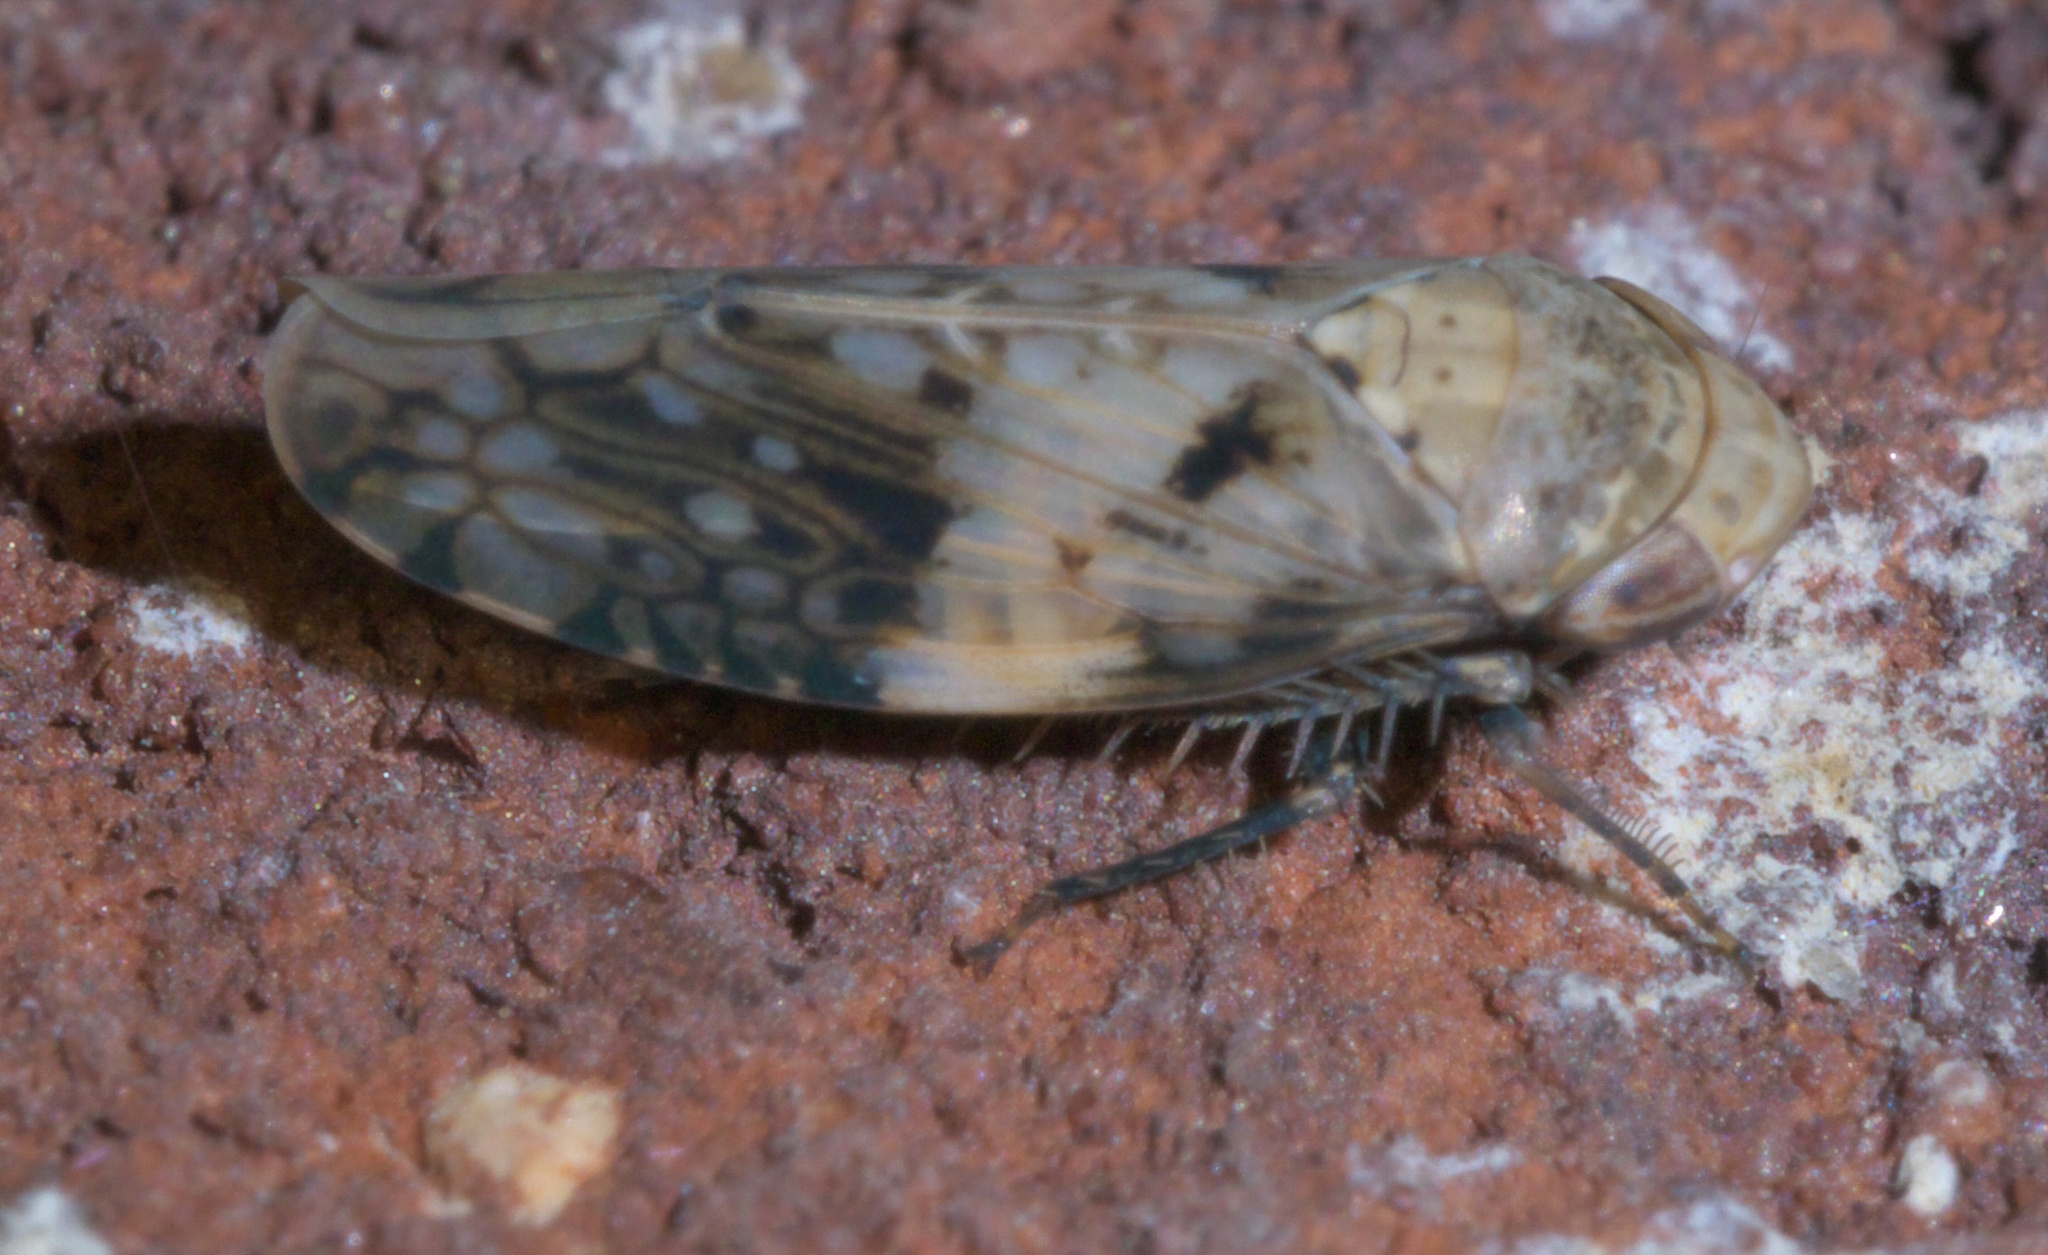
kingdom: Animalia
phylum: Arthropoda
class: Insecta
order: Hemiptera
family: Cicadellidae
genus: Menosoma
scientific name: Menosoma cinctum
